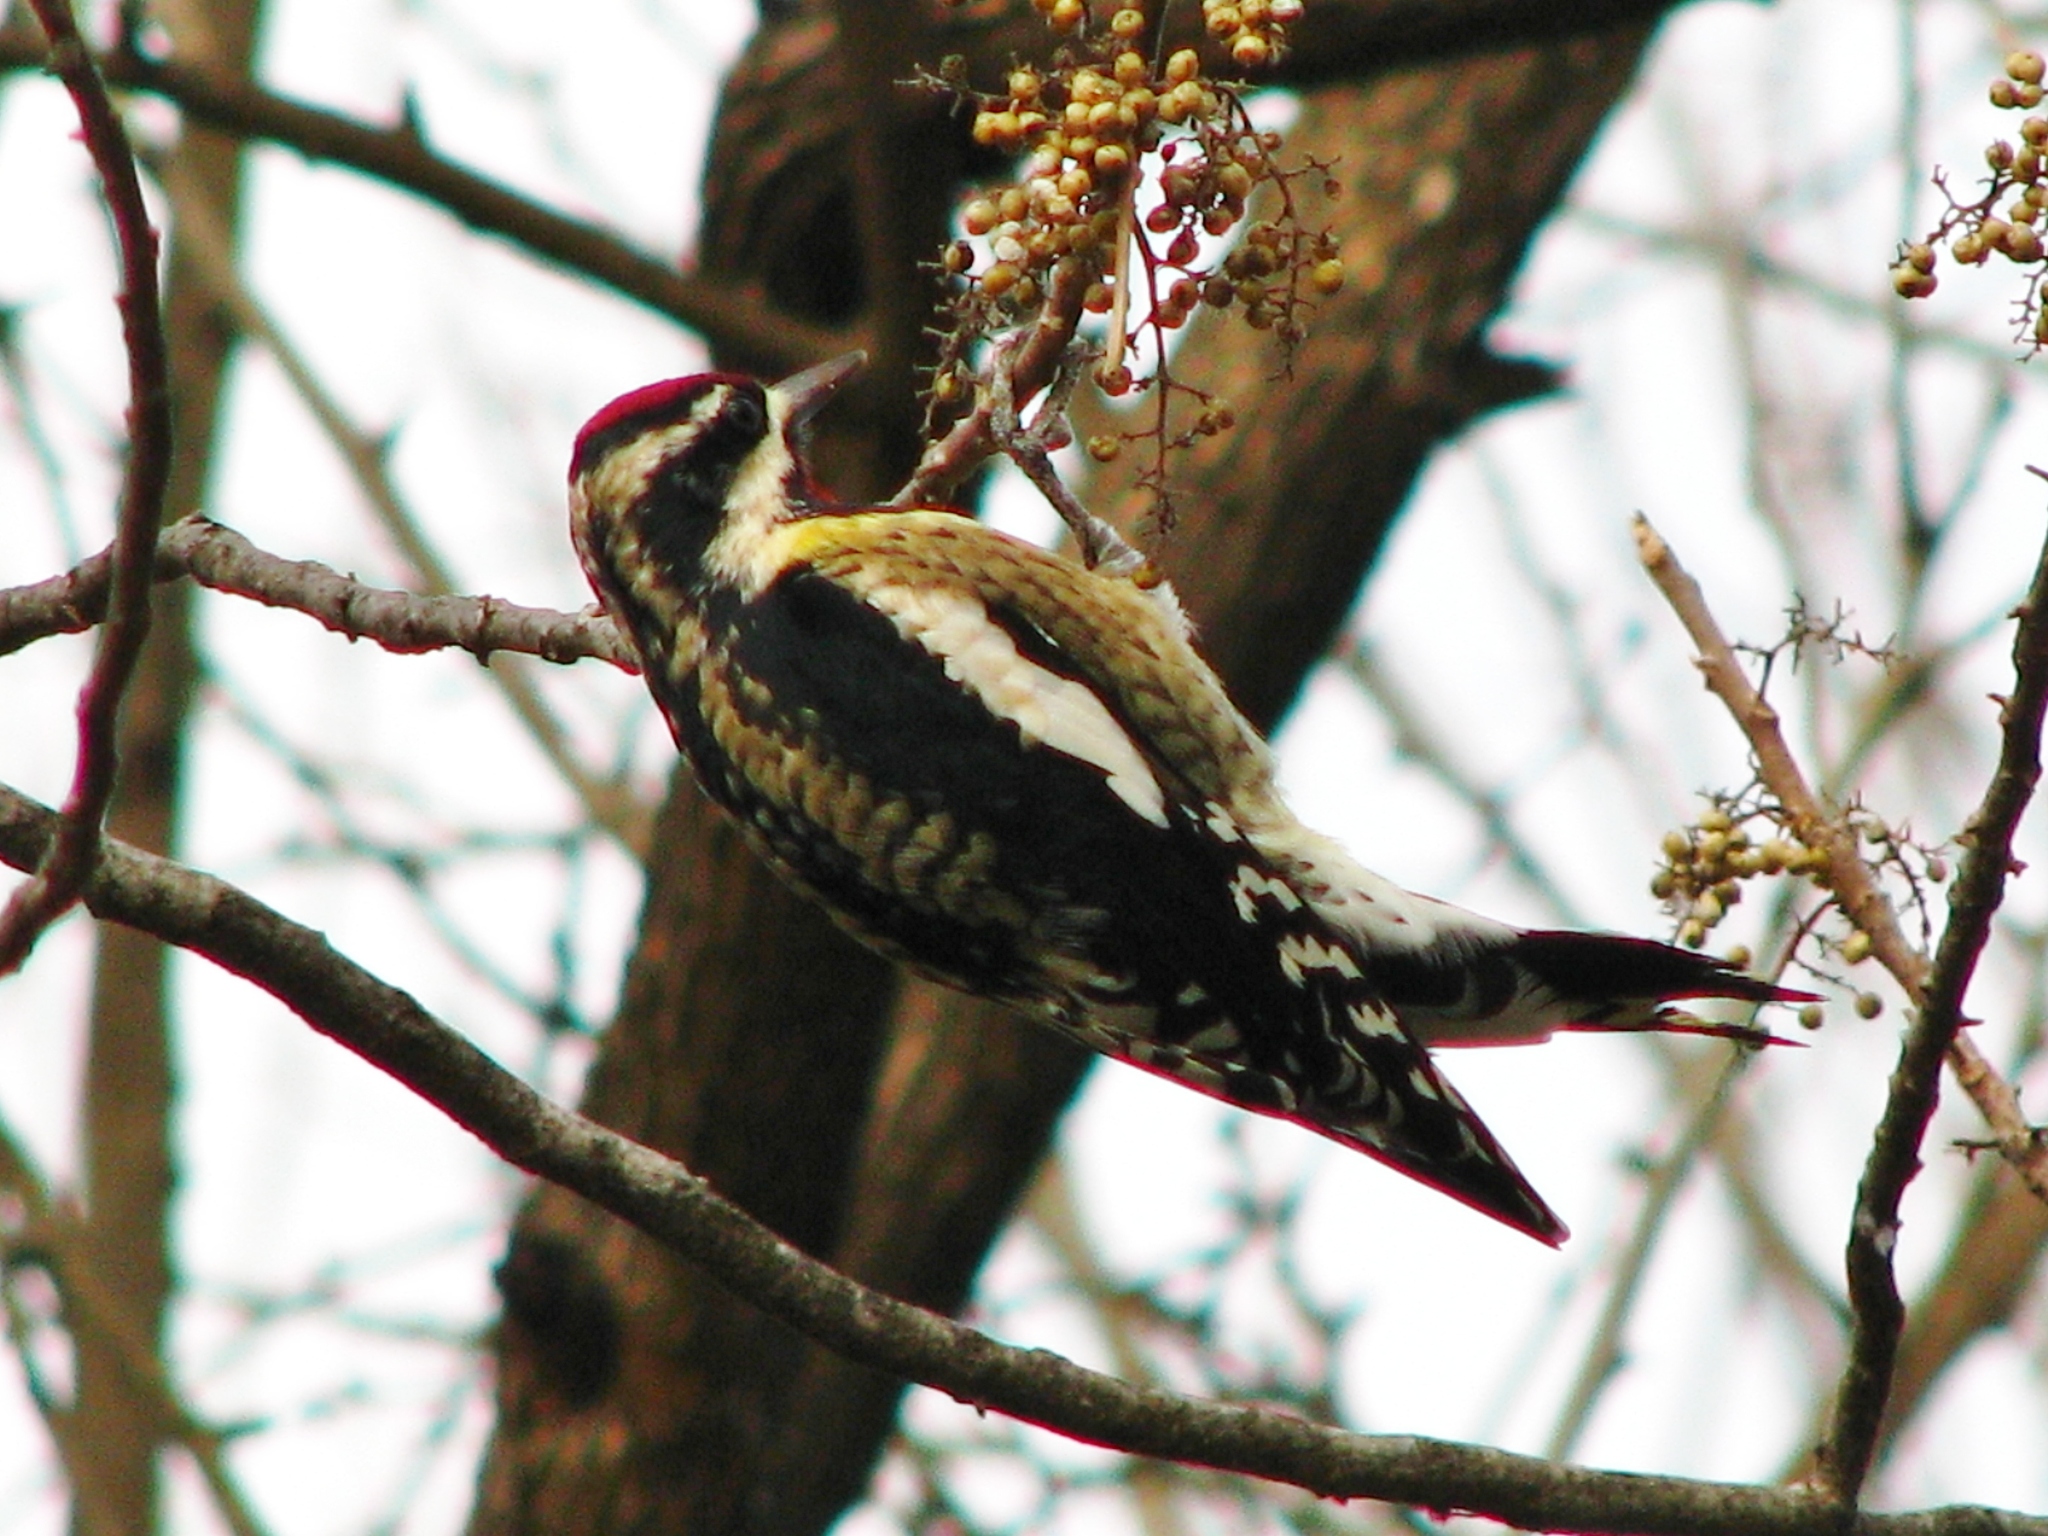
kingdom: Animalia
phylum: Chordata
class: Aves
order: Piciformes
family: Picidae
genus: Sphyrapicus
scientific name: Sphyrapicus varius
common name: Yellow-bellied sapsucker
